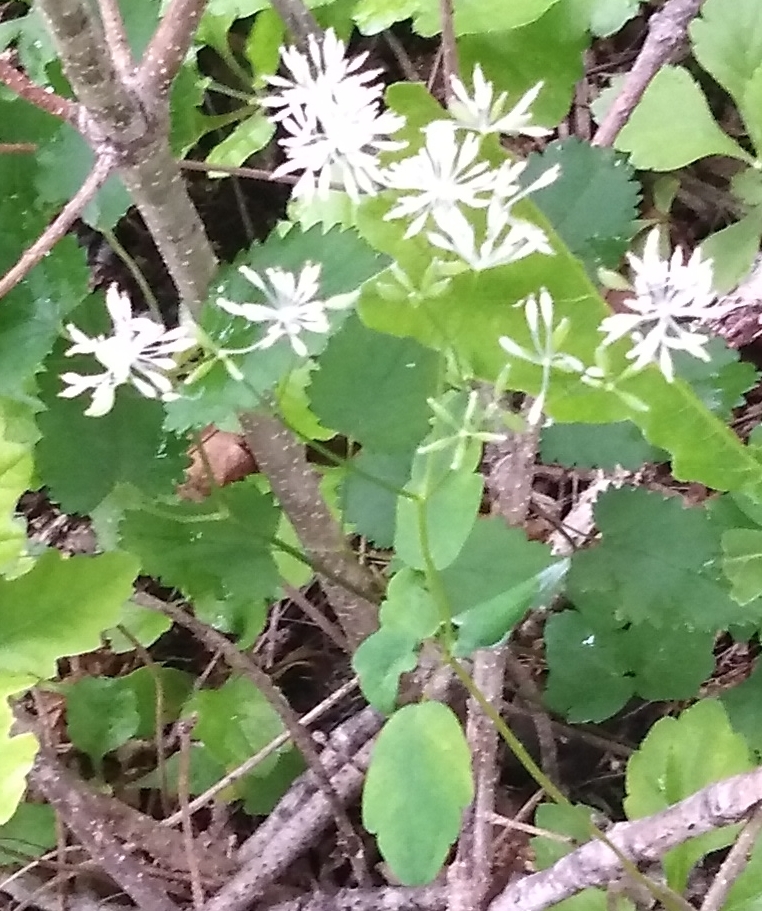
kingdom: Plantae
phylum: Tracheophyta
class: Magnoliopsida
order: Ranunculales
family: Ranunculaceae
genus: Thalictrum
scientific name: Thalictrum tuberiferum
